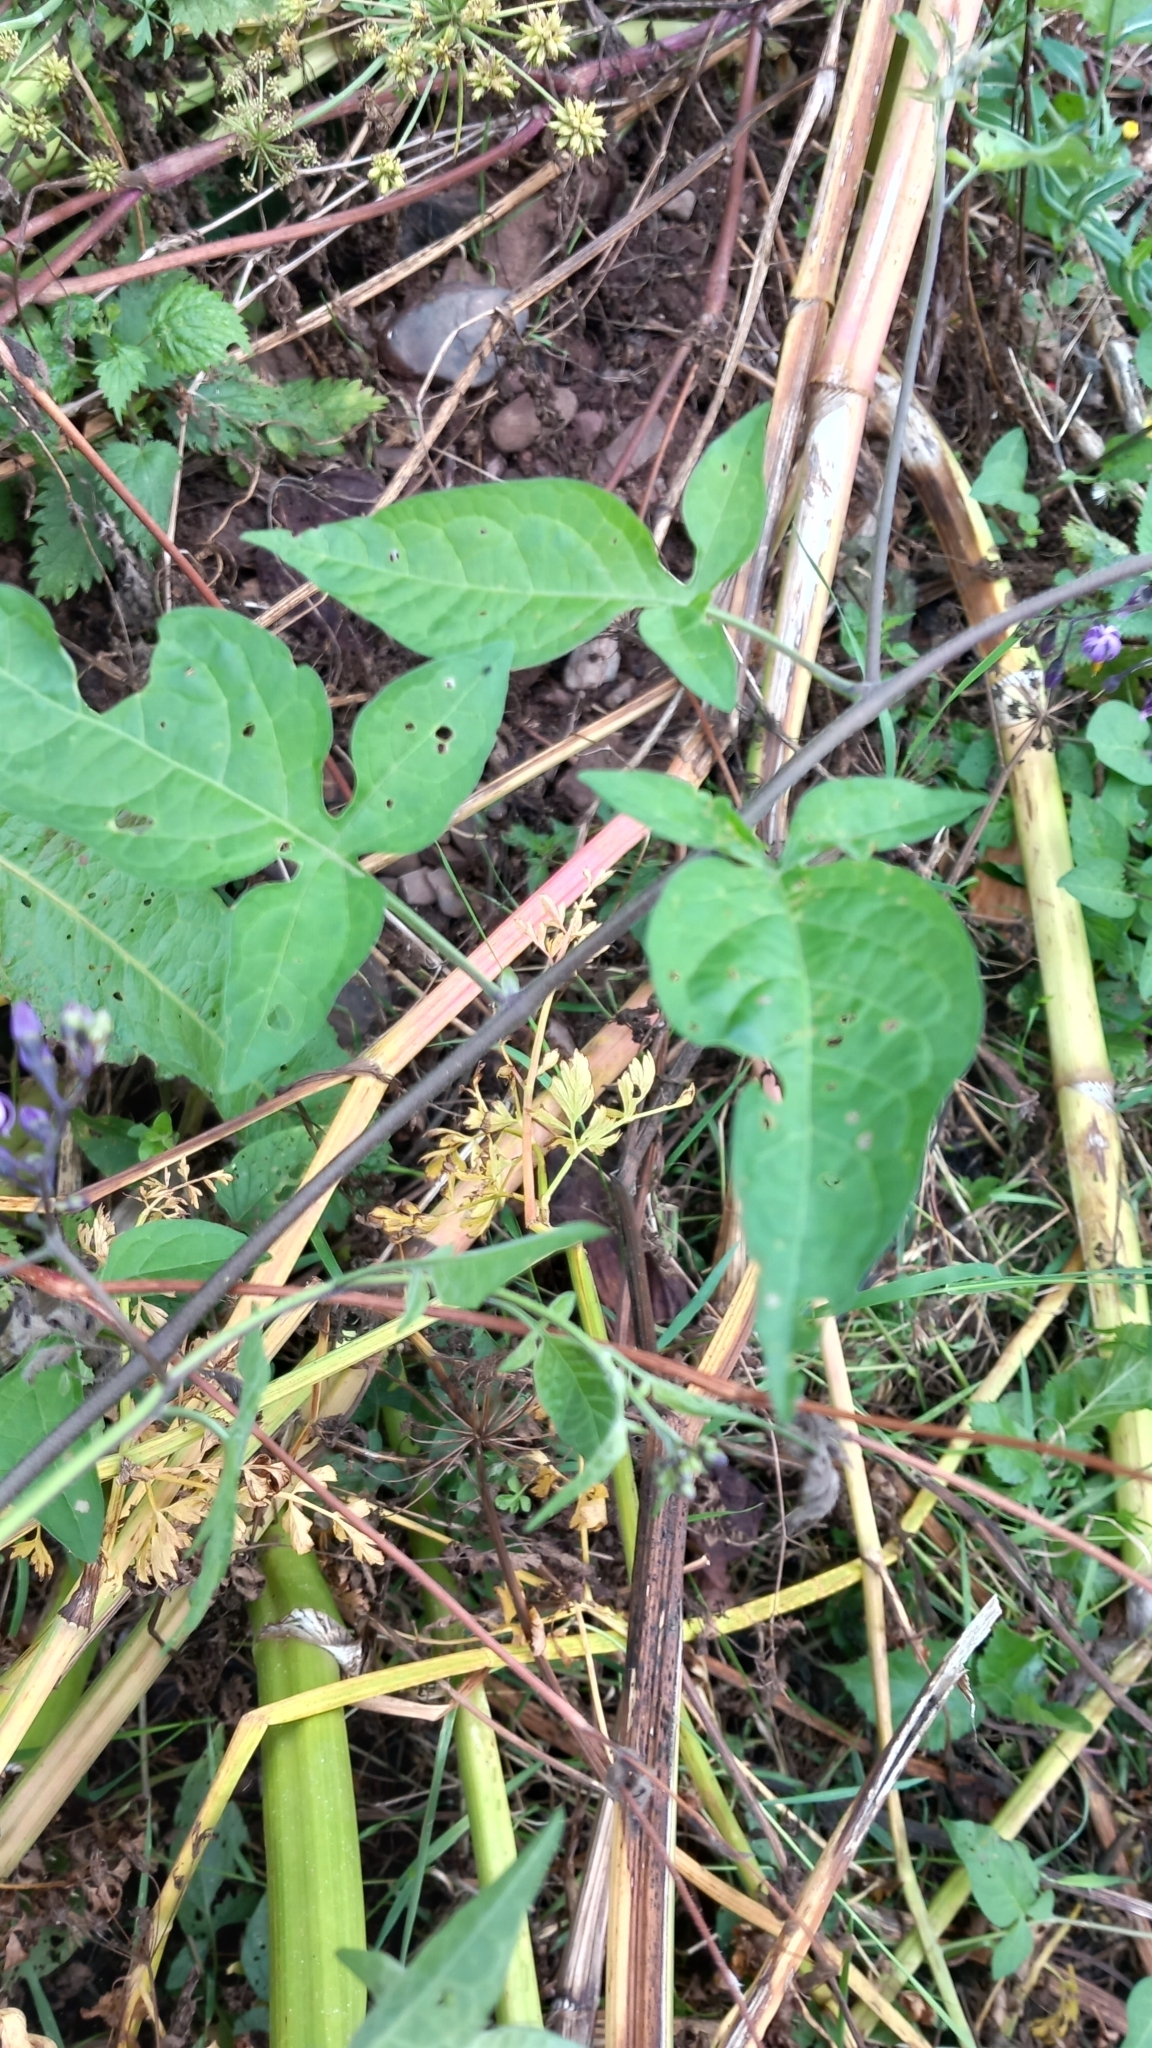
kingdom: Plantae
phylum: Tracheophyta
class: Magnoliopsida
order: Solanales
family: Solanaceae
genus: Solanum
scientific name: Solanum dulcamara
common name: Climbing nightshade
